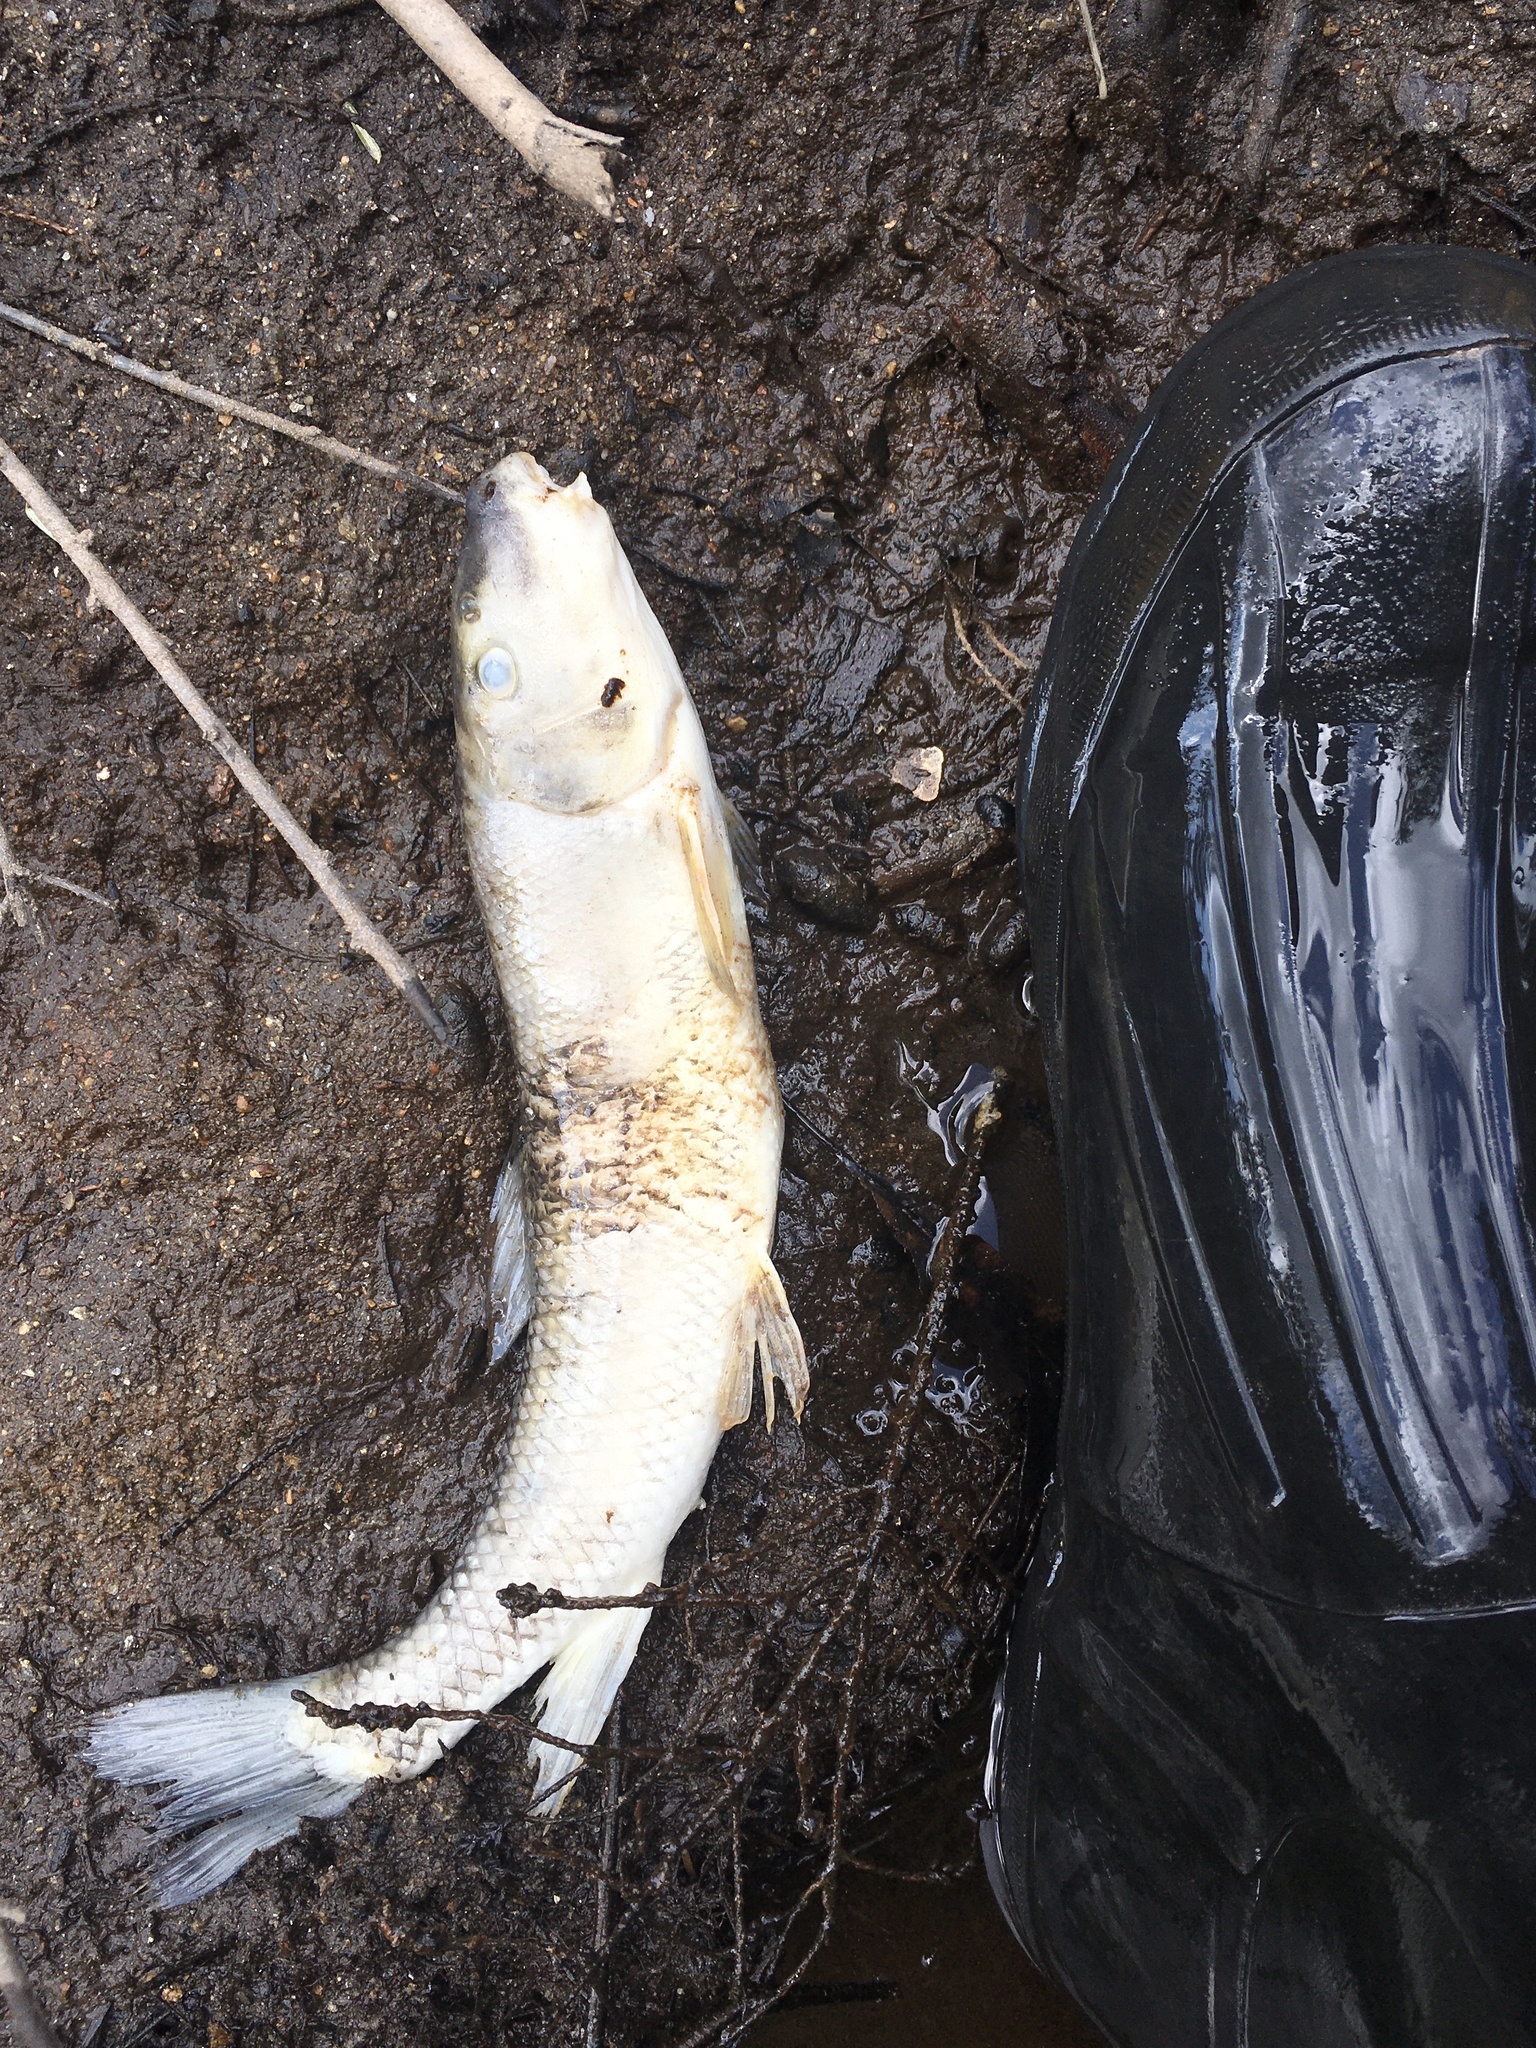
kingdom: Animalia
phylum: Chordata
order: Cypriniformes
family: Catostomidae
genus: Catostomus
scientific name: Catostomus commersonii
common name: White sucker
